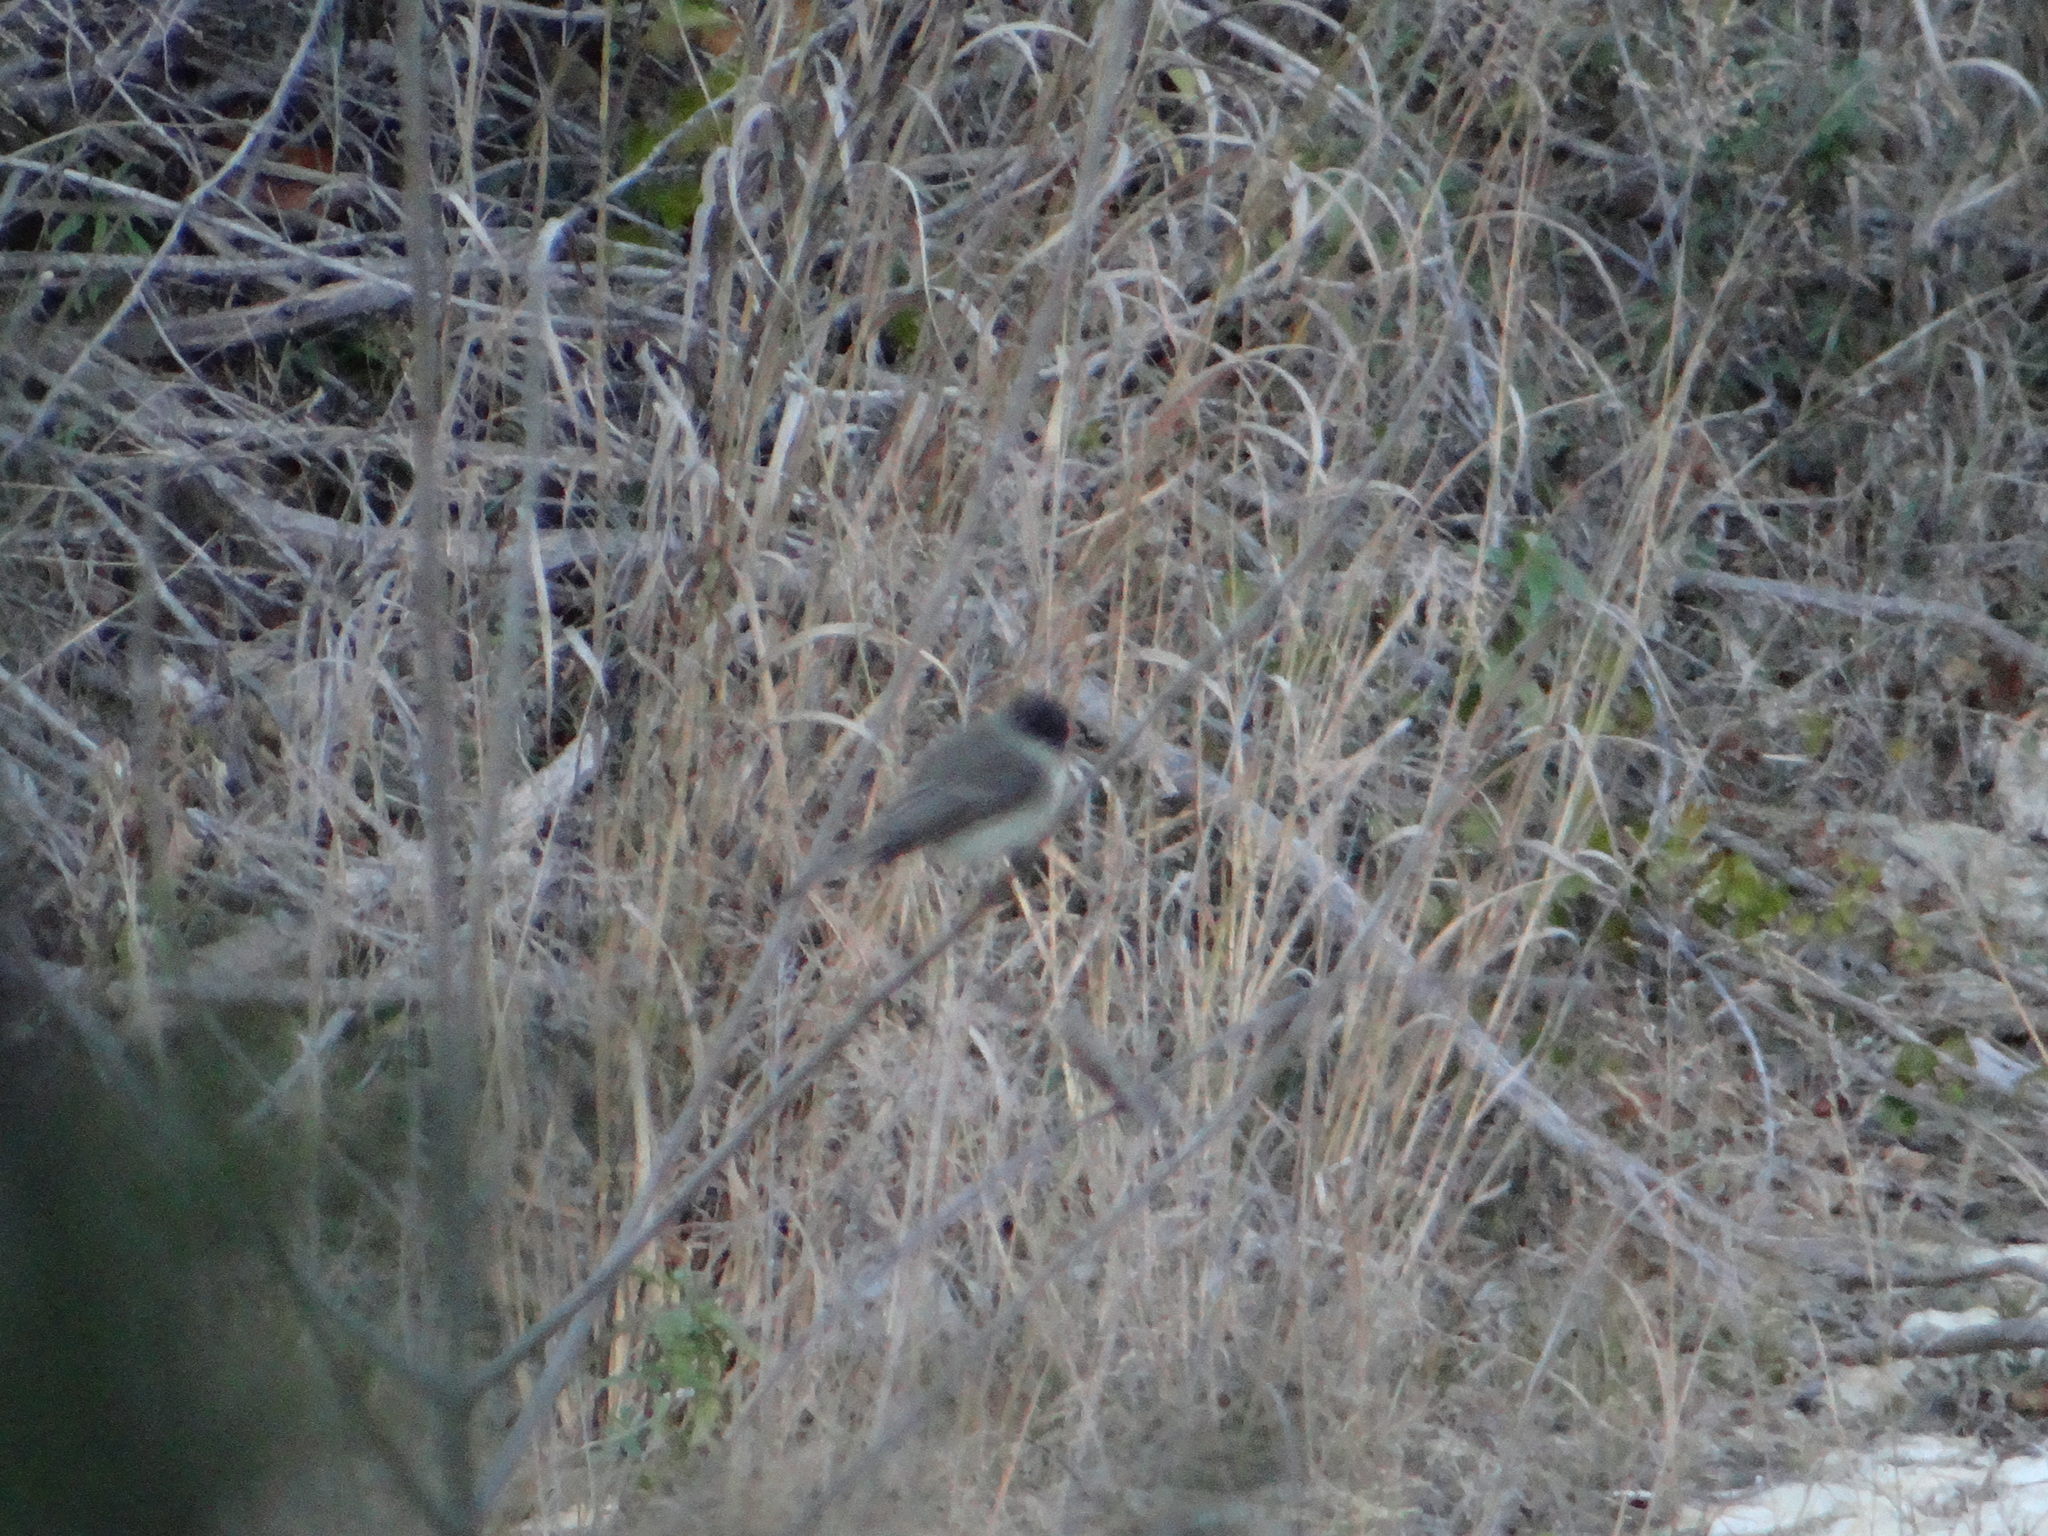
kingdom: Animalia
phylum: Chordata
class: Aves
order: Passeriformes
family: Tyrannidae
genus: Sayornis
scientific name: Sayornis phoebe
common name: Eastern phoebe
